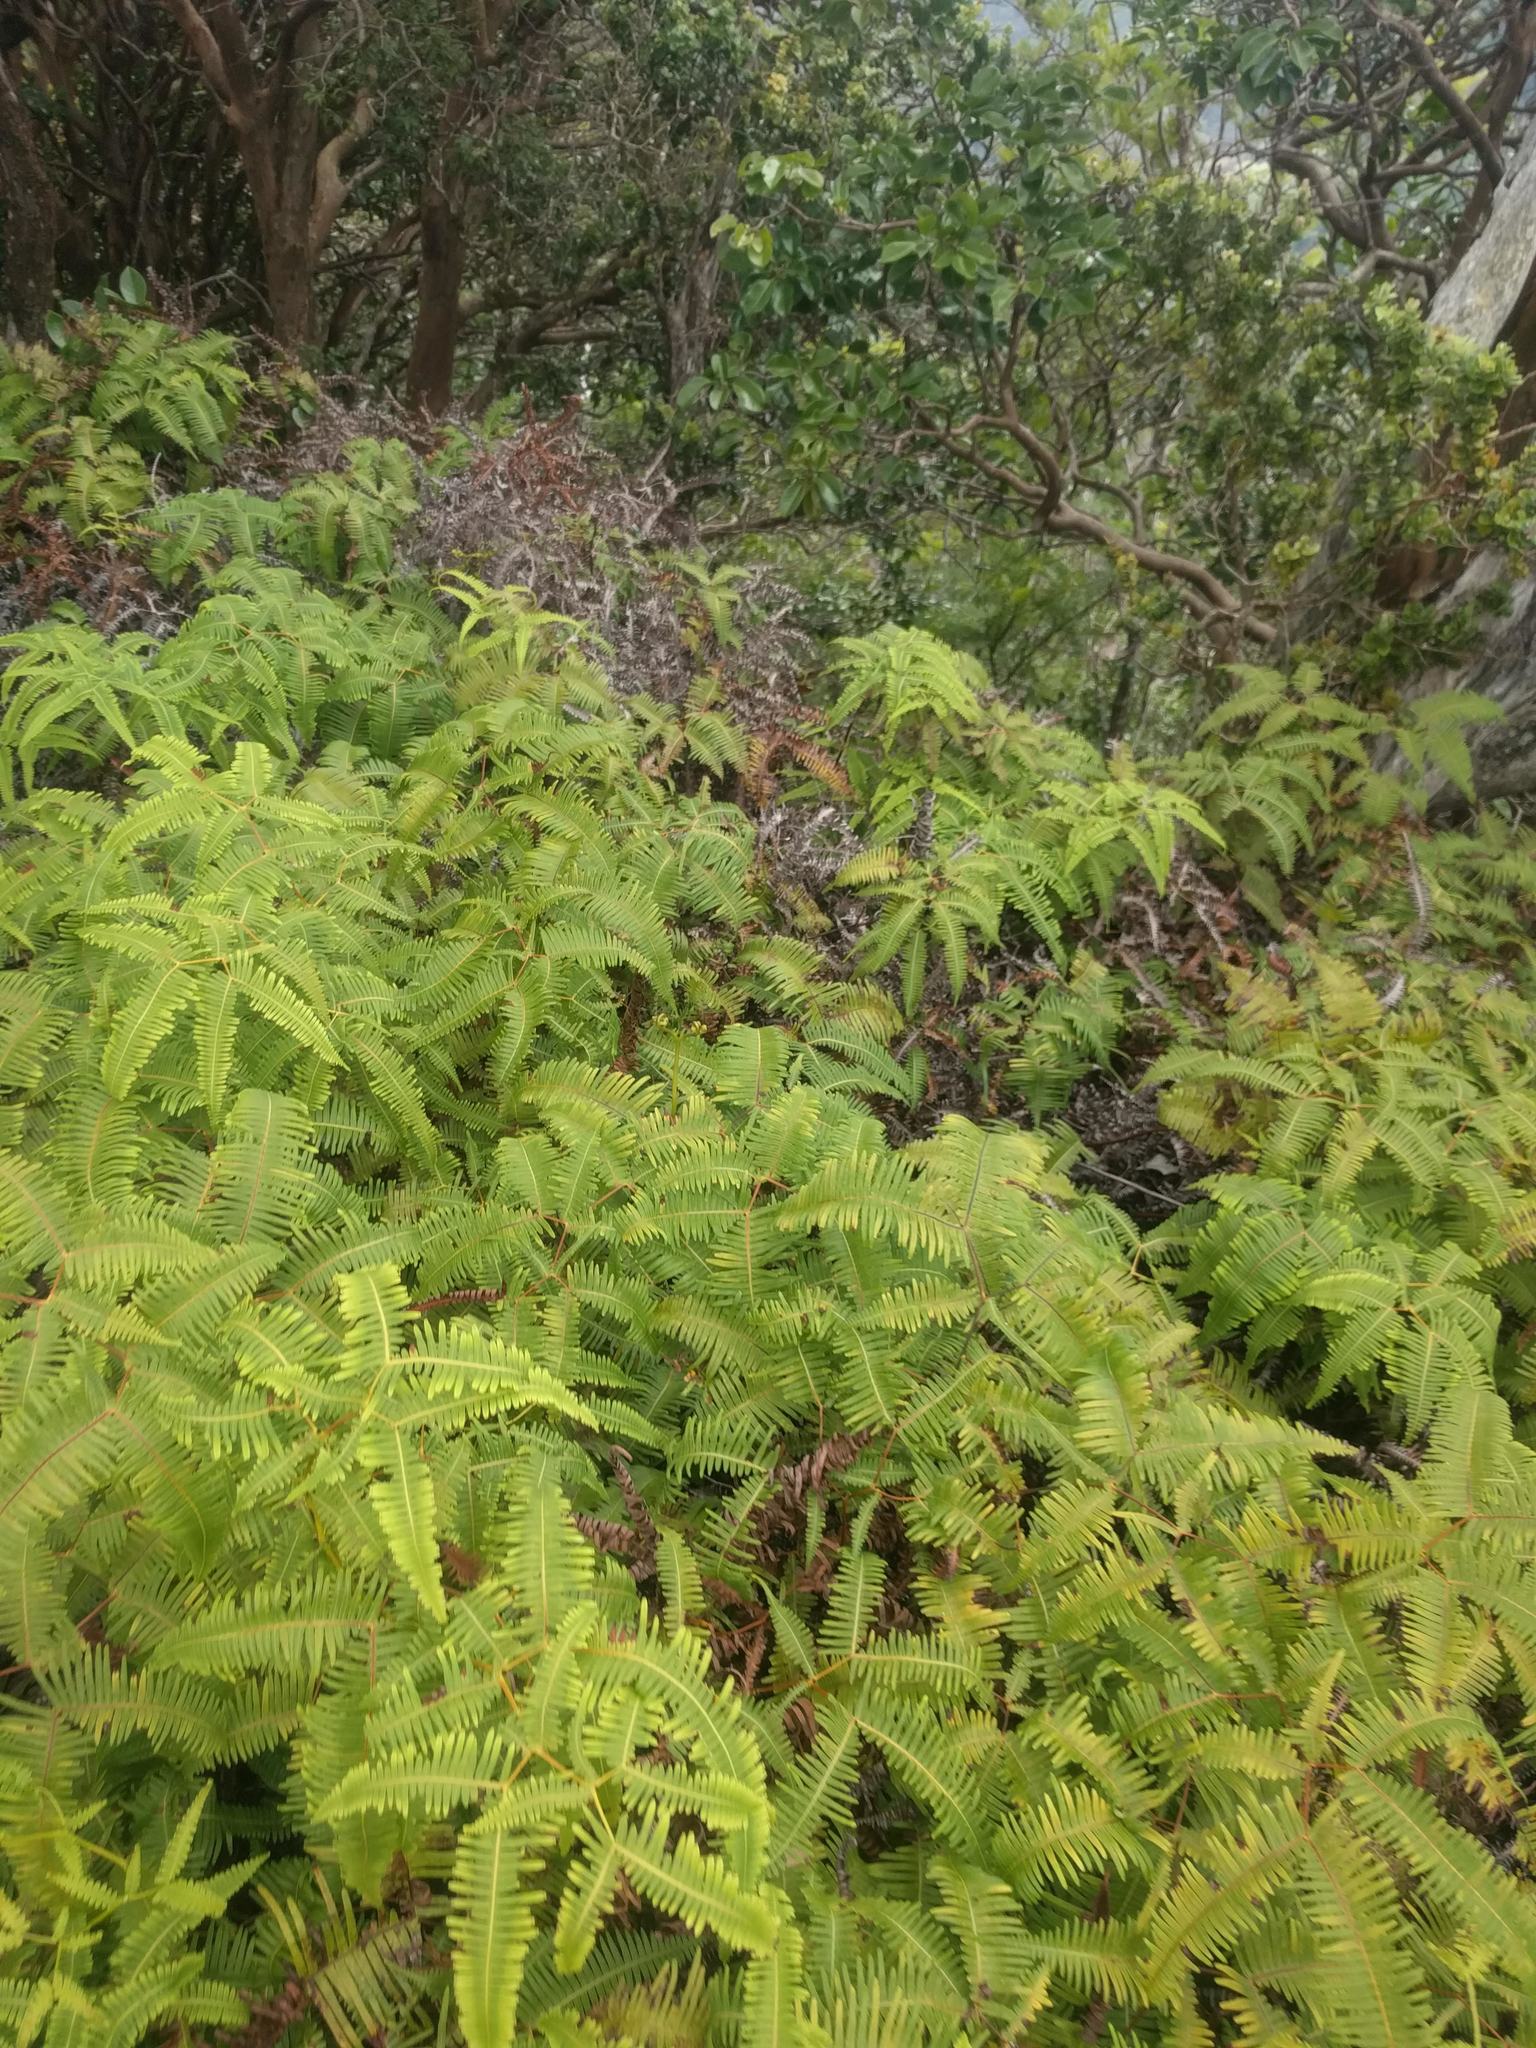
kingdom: Plantae
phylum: Tracheophyta
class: Polypodiopsida
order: Gleicheniales
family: Gleicheniaceae
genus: Dicranopteris
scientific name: Dicranopteris linearis
